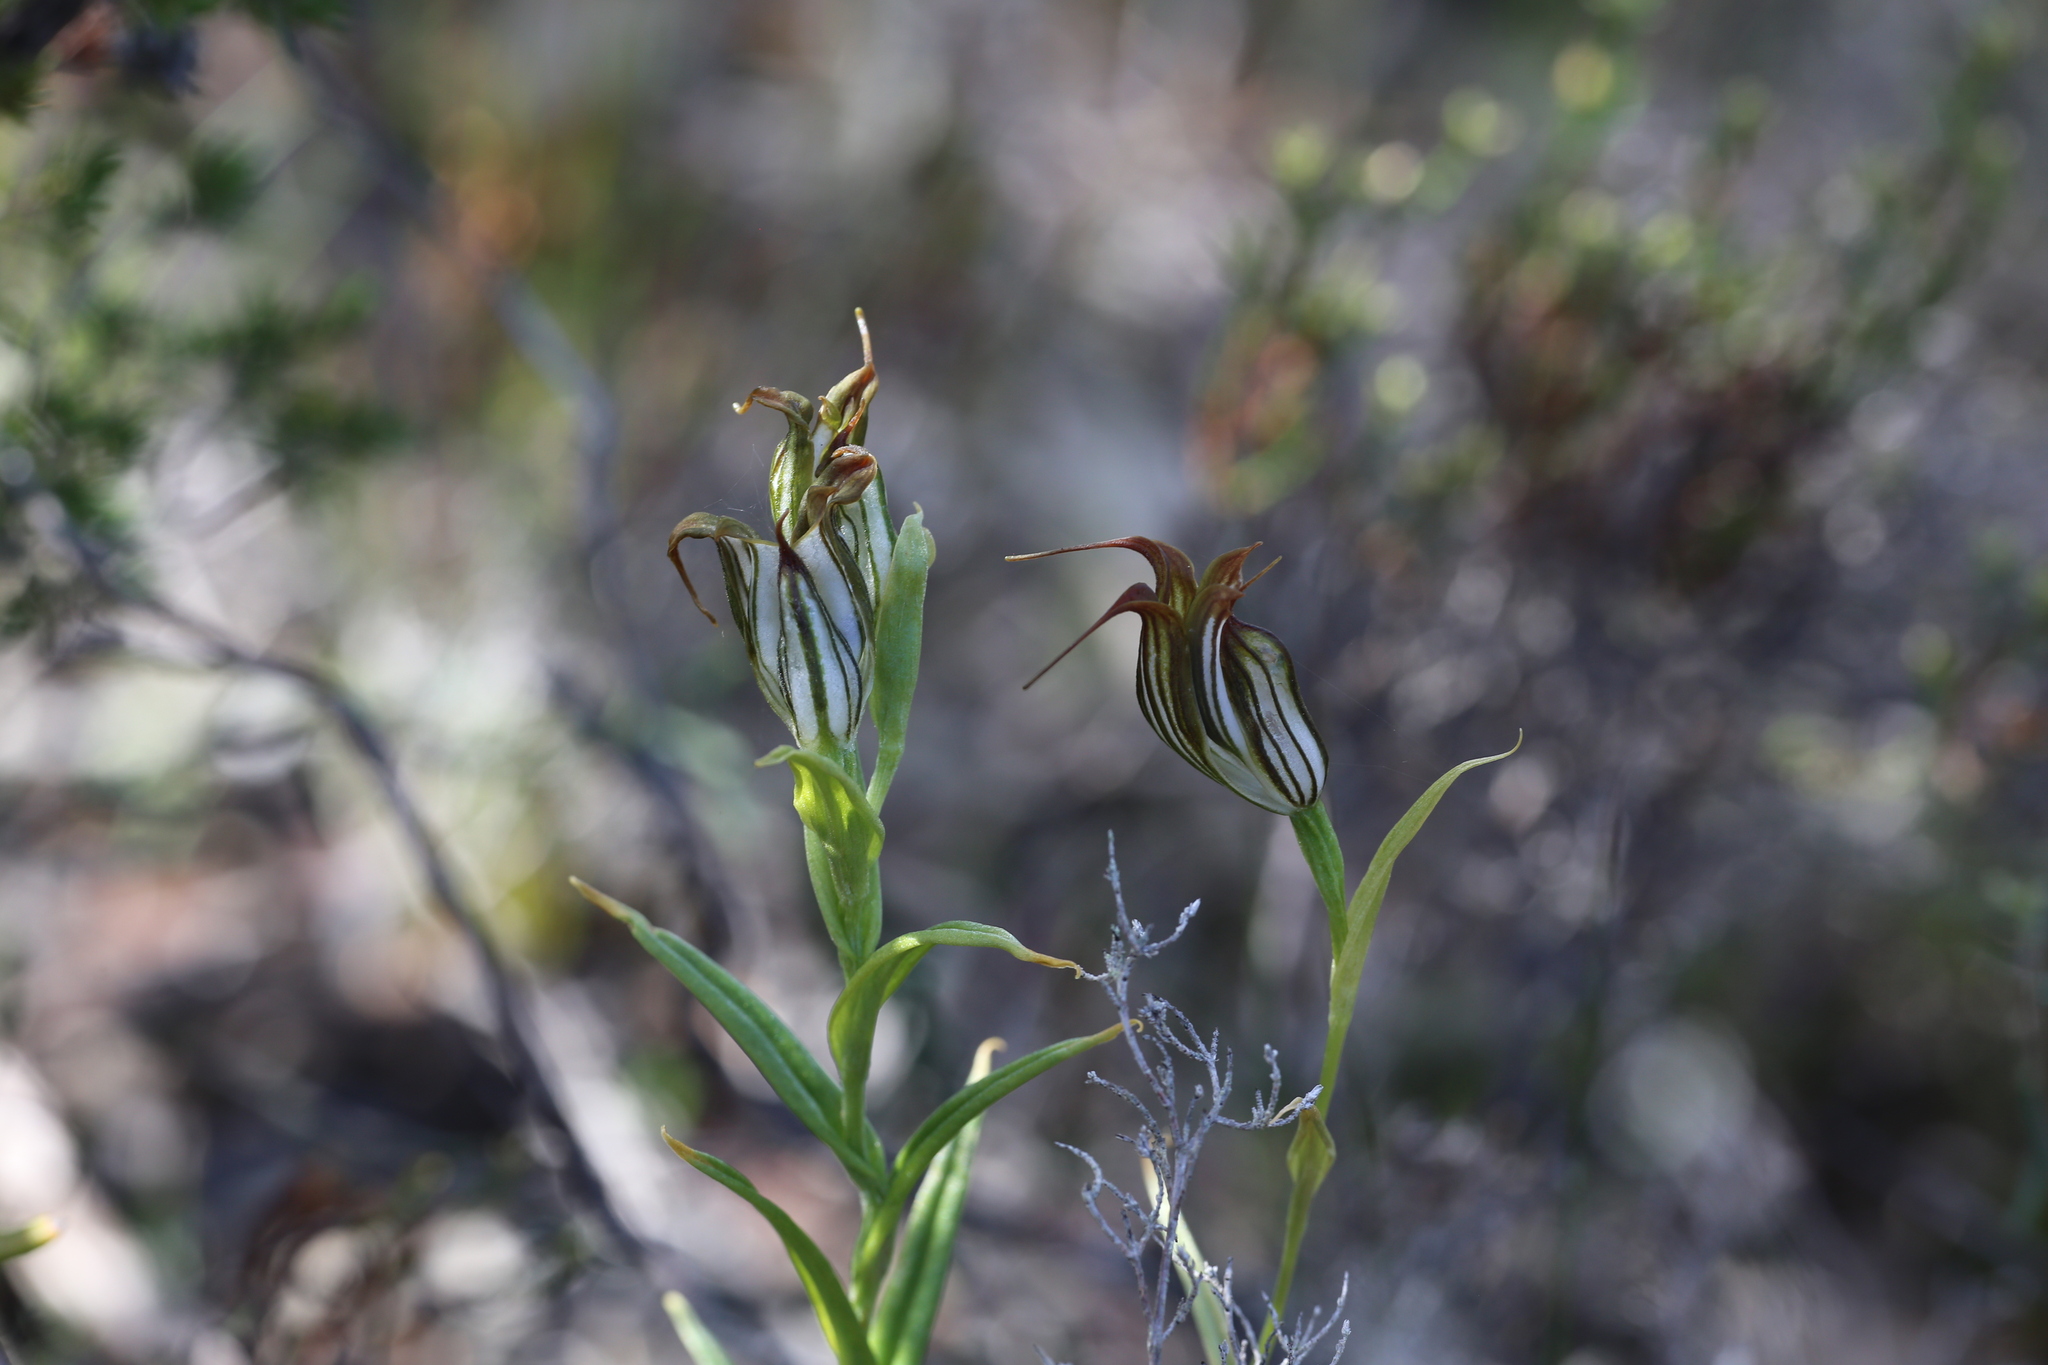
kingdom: Plantae
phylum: Tracheophyta
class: Liliopsida
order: Asparagales
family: Orchidaceae
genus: Pterostylis
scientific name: Pterostylis recurva
